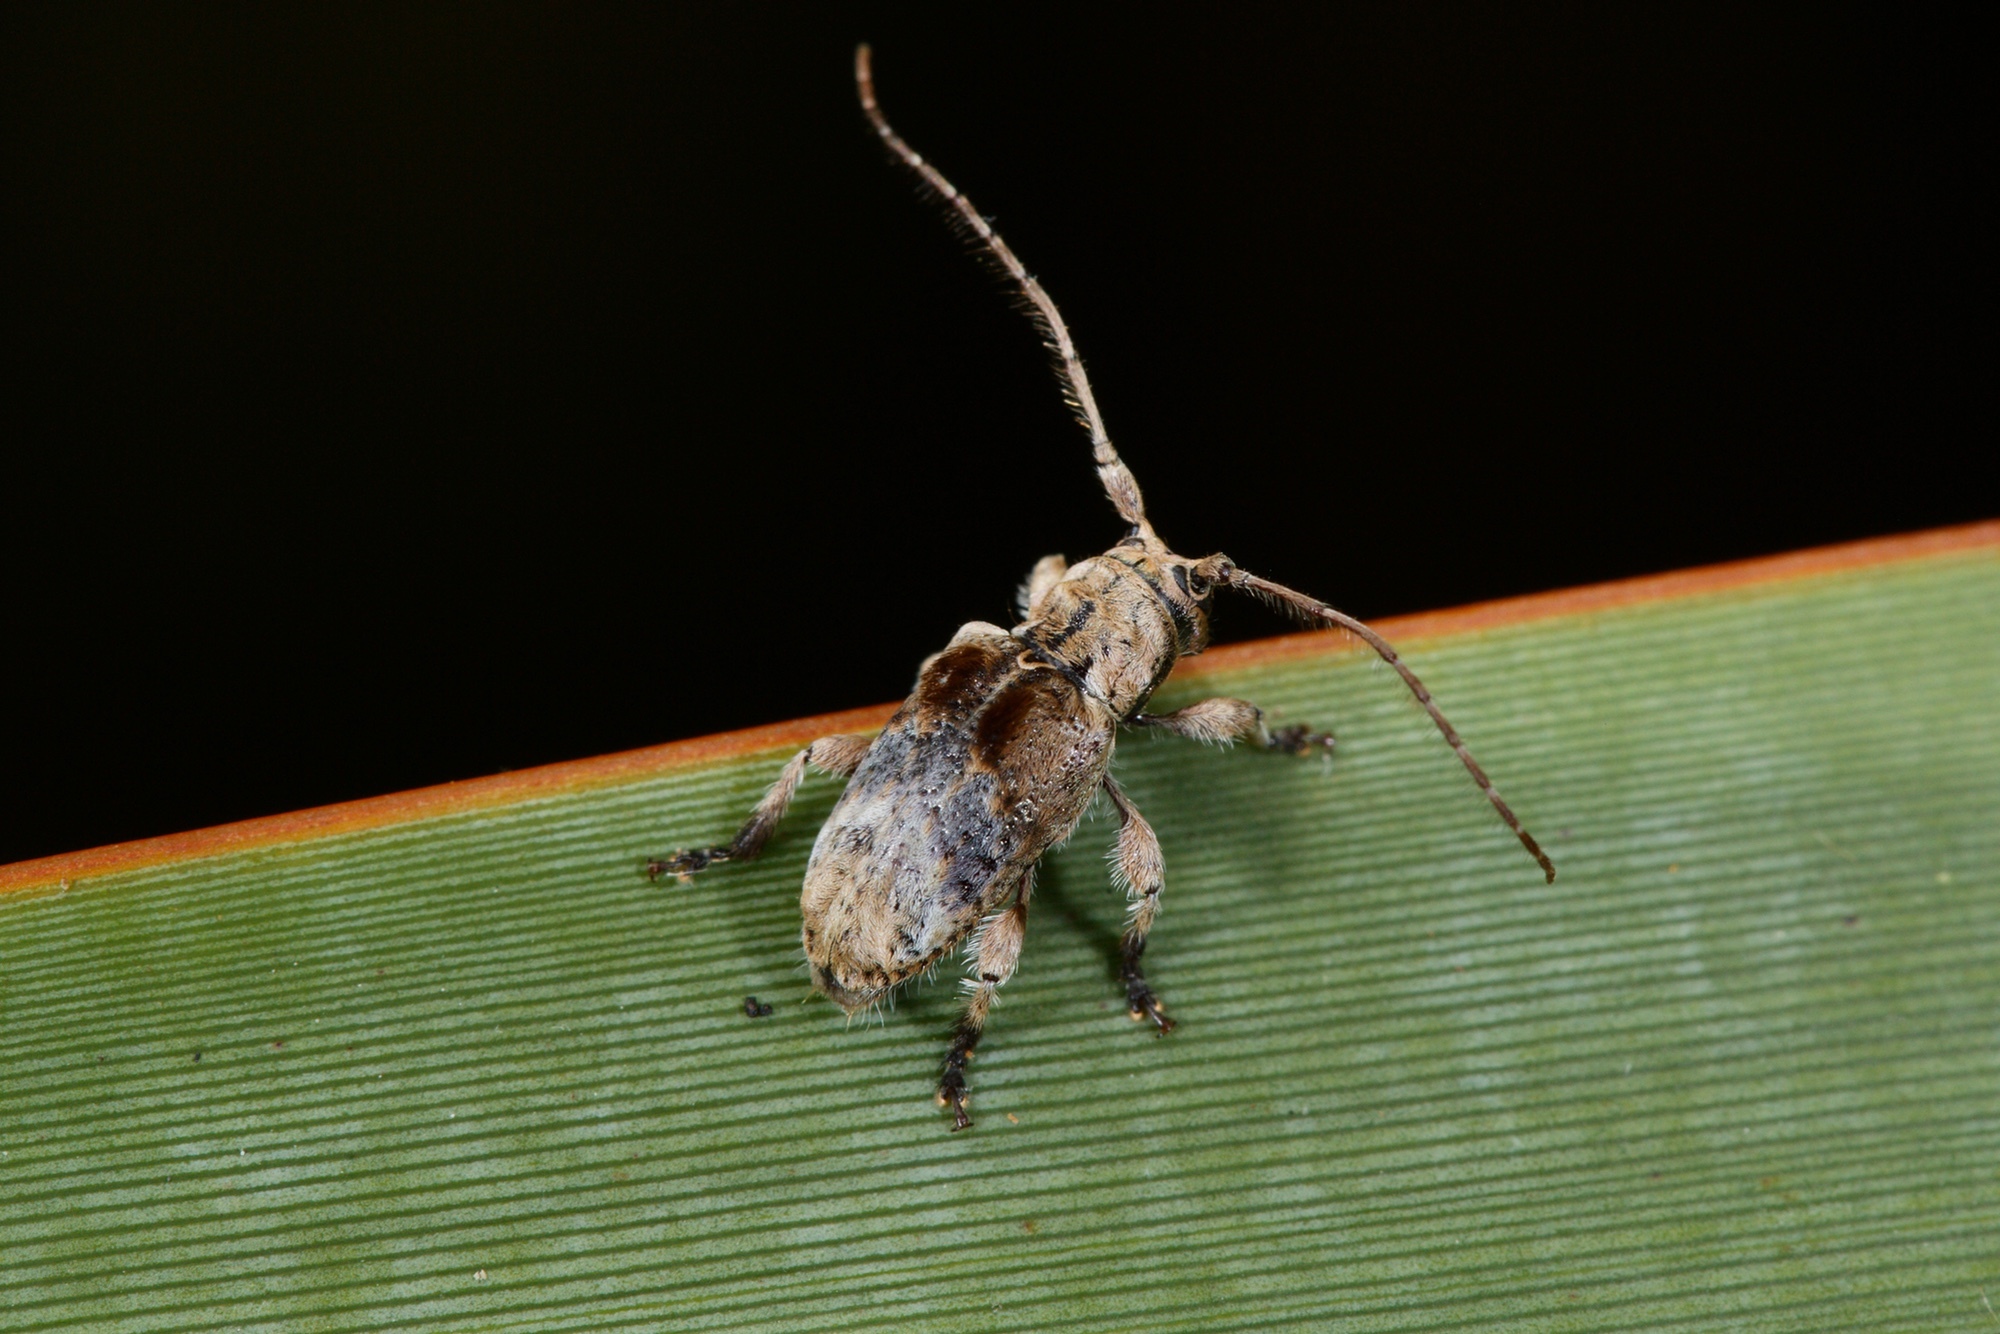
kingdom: Animalia
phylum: Arthropoda
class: Insecta
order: Coleoptera
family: Cerambycidae
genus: Hybolasius
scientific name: Hybolasius cristus
